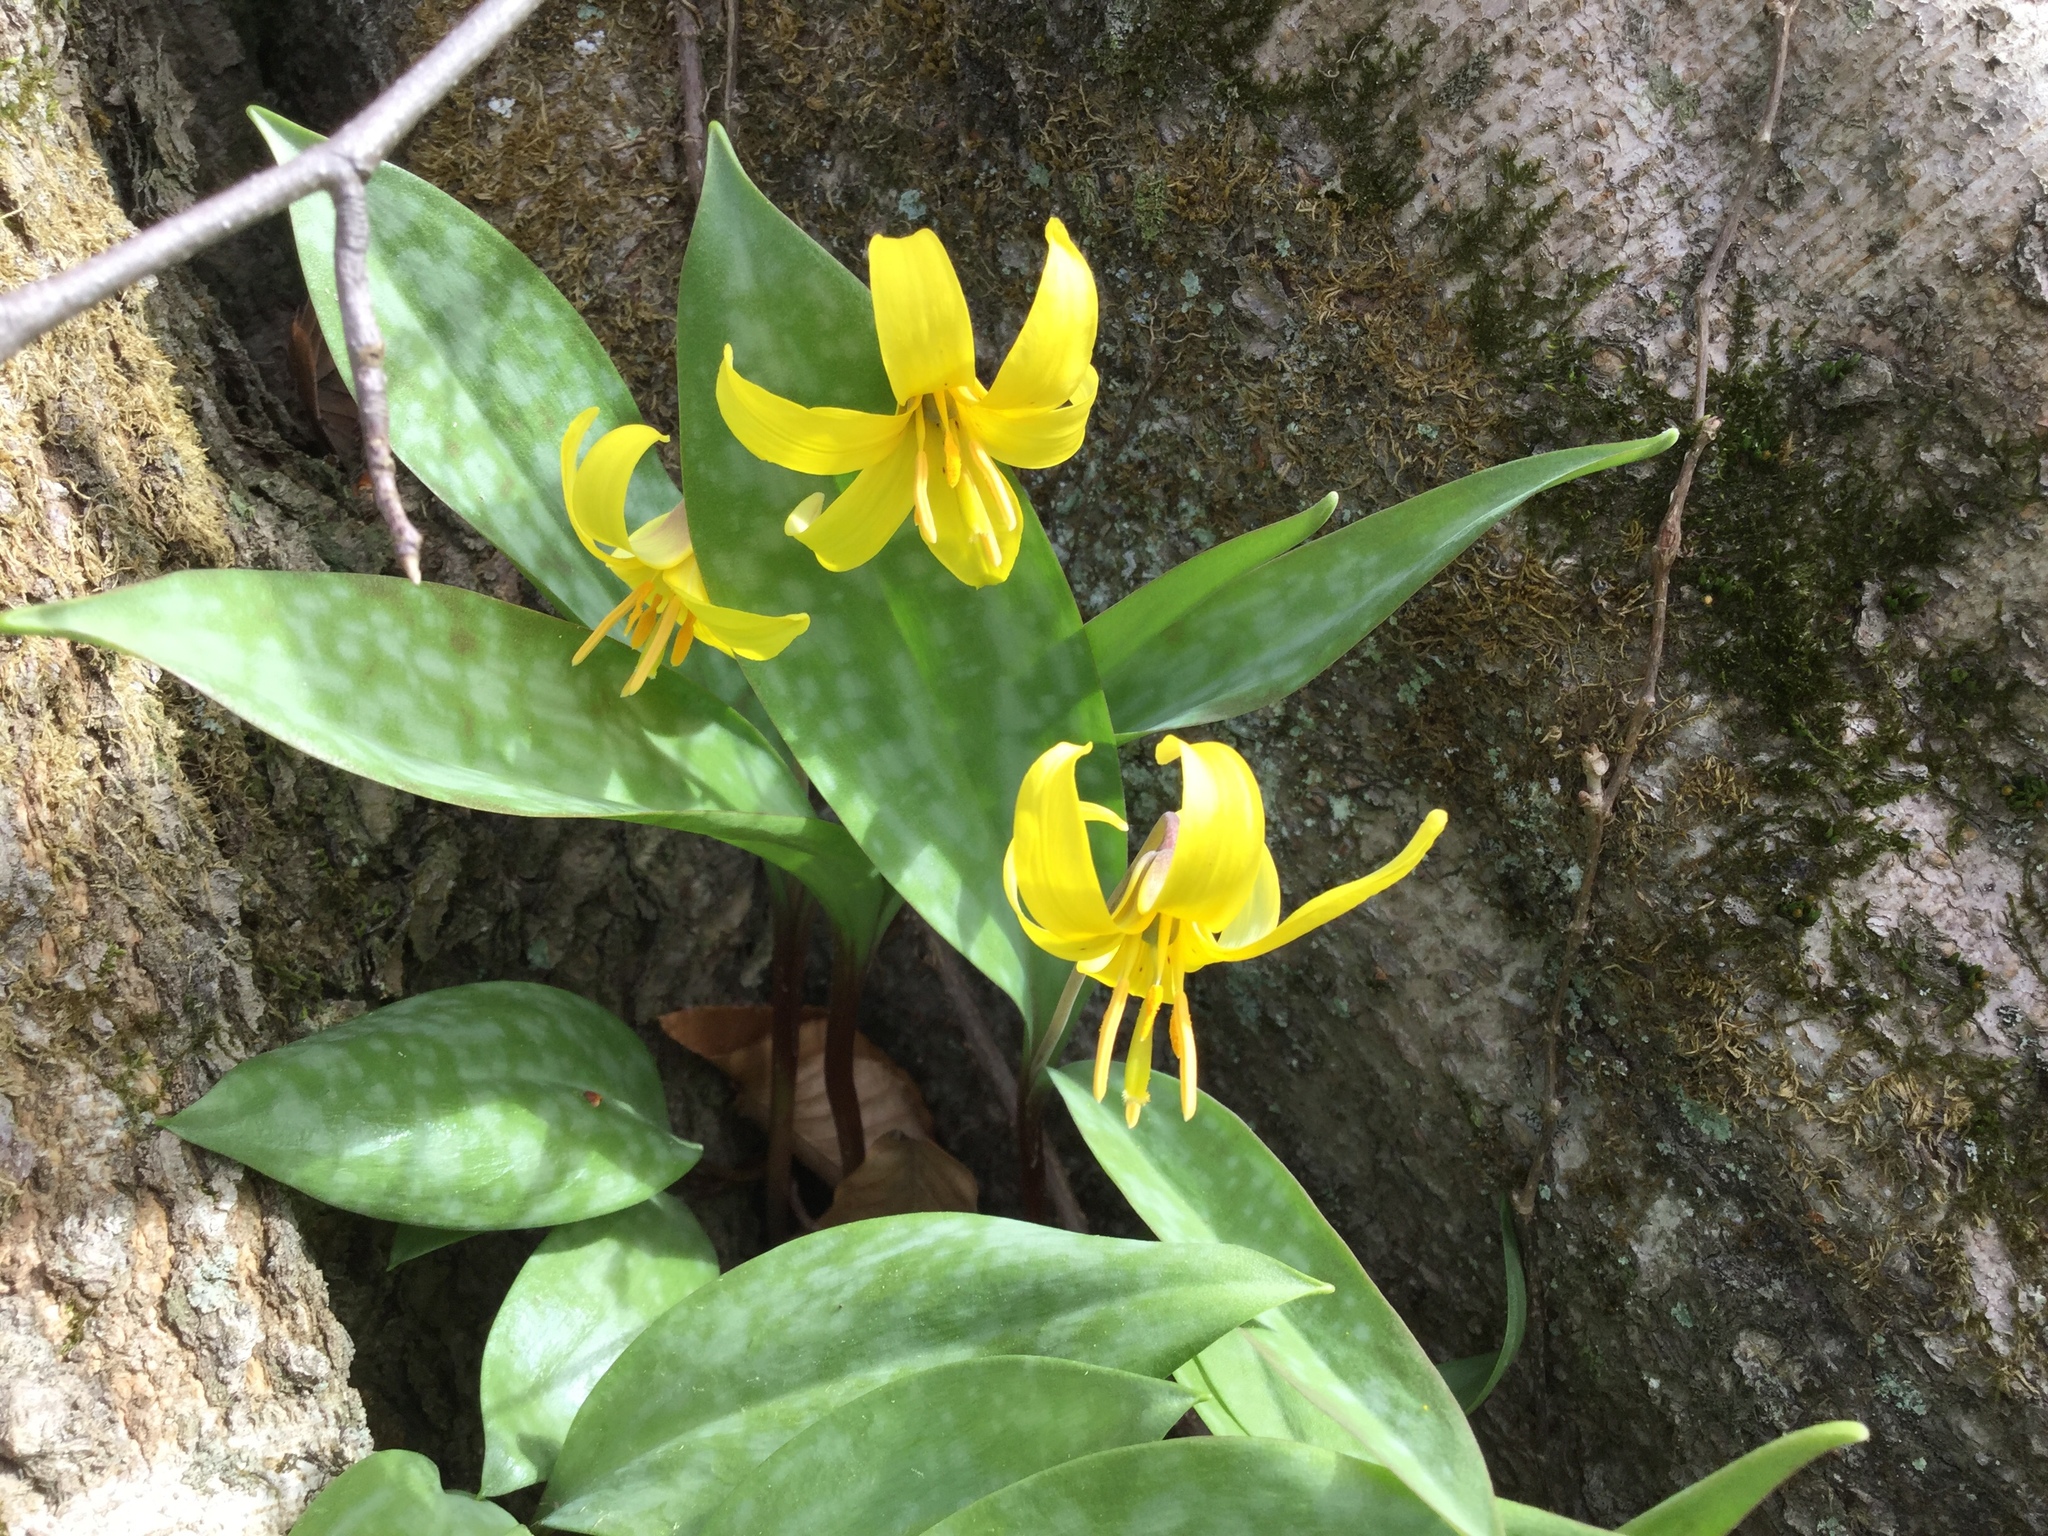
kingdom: Plantae
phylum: Tracheophyta
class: Liliopsida
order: Liliales
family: Liliaceae
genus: Erythronium
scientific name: Erythronium americanum
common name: Yellow adder's-tongue
